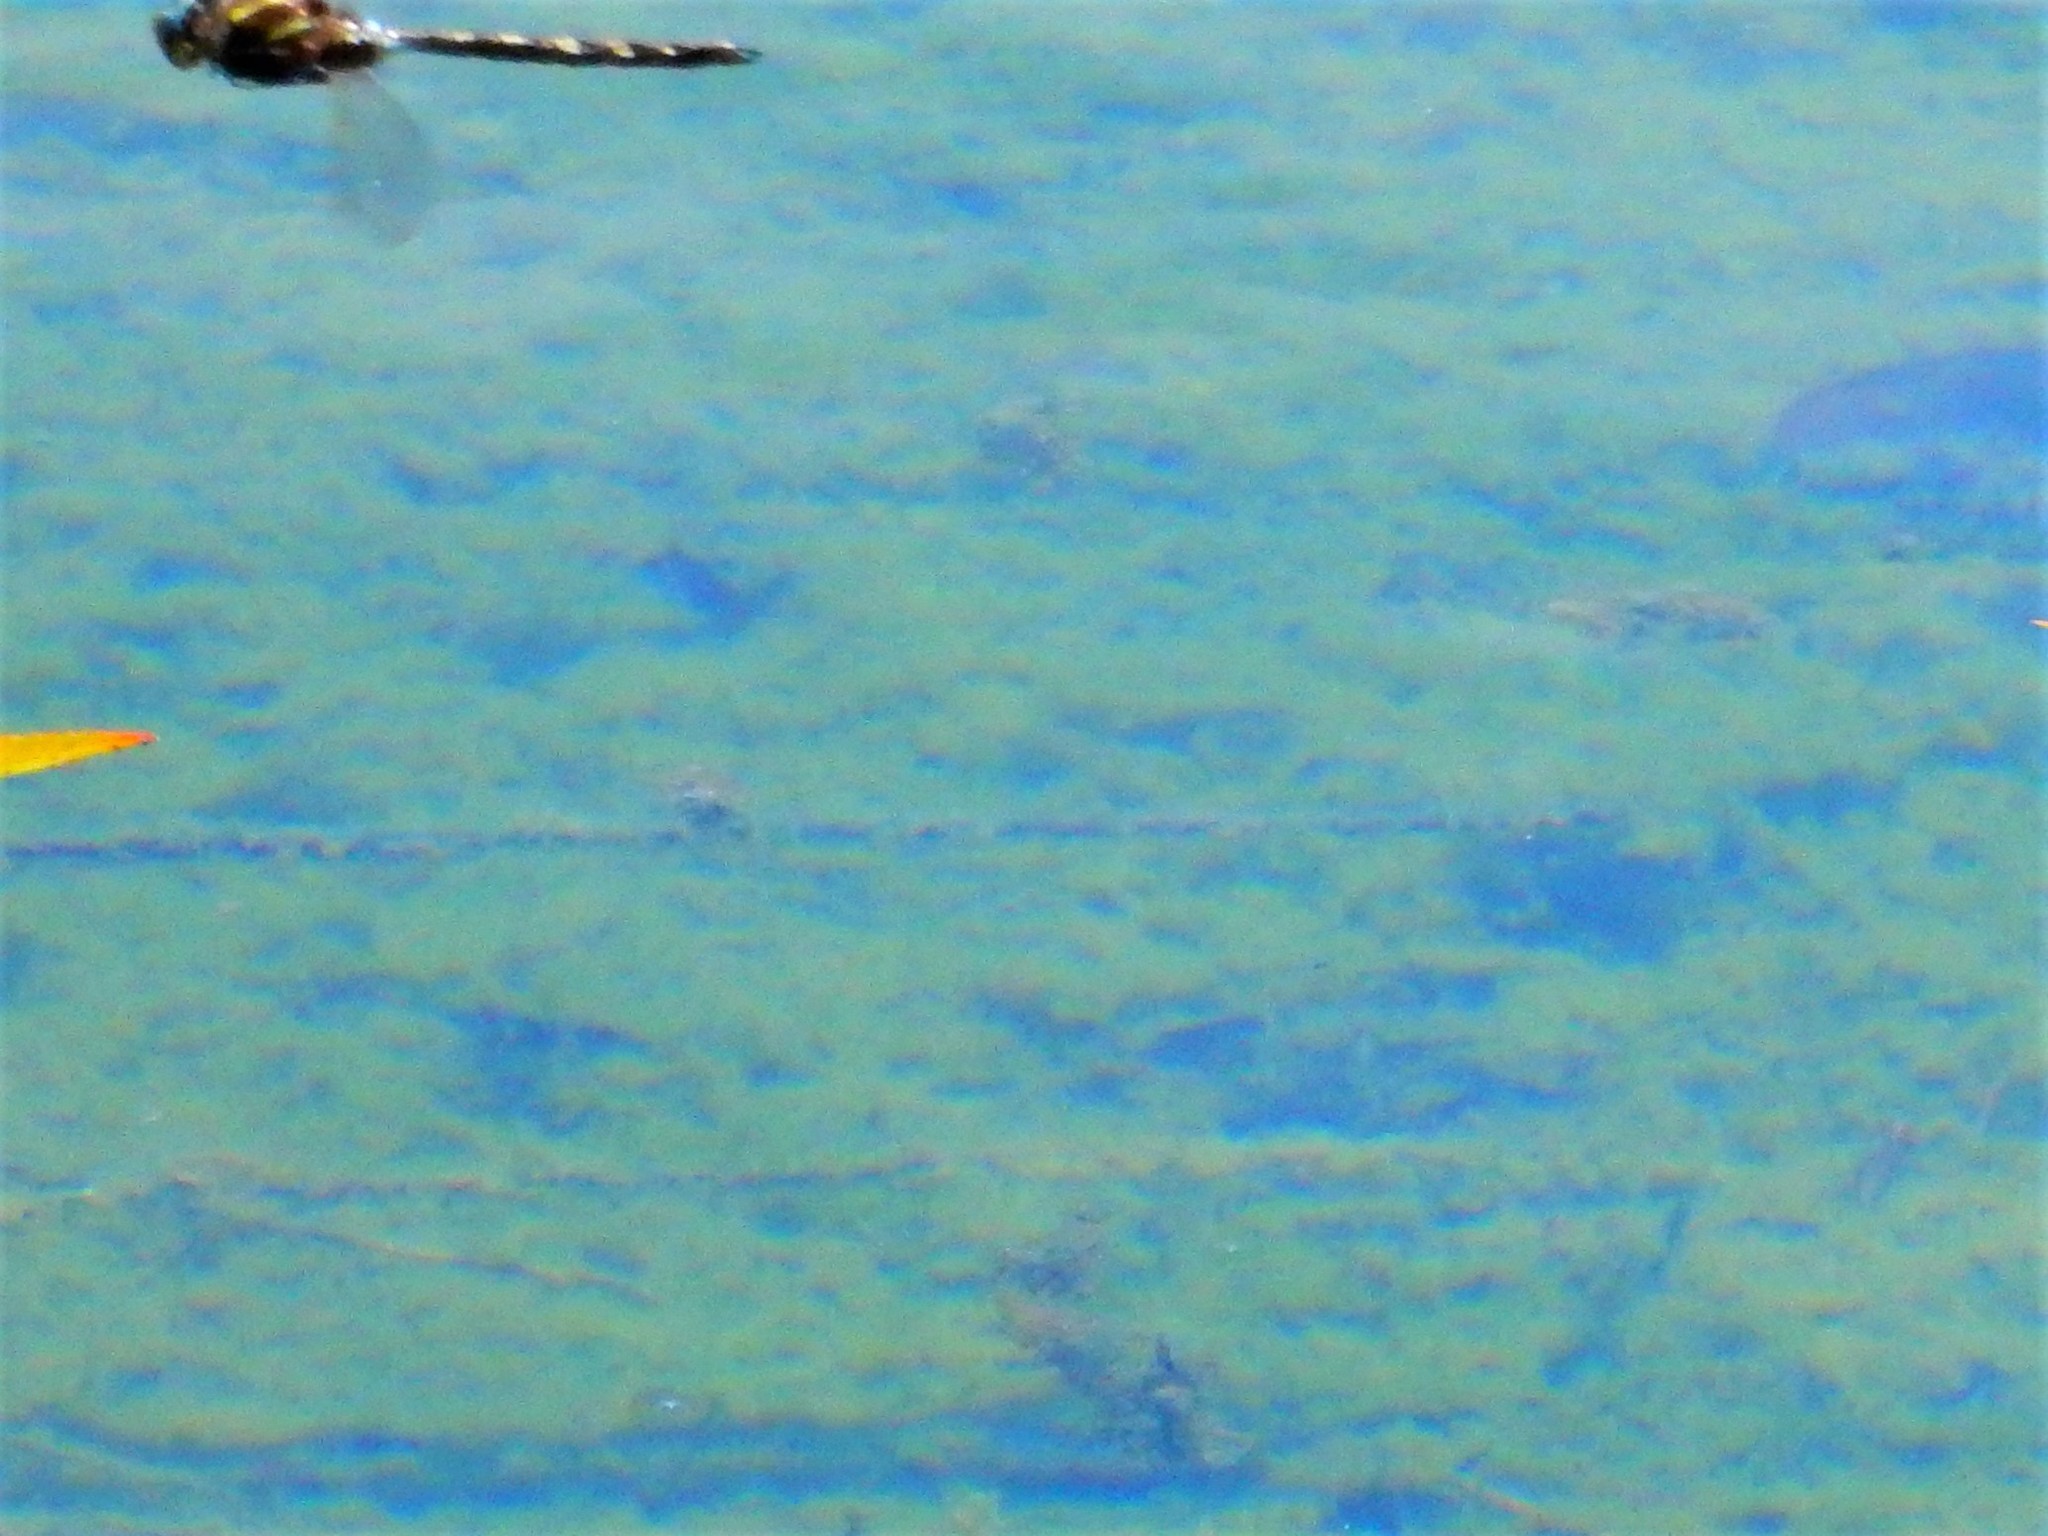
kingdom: Animalia
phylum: Arthropoda
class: Insecta
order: Odonata
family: Corduliidae
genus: Procordulia
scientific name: Procordulia grayi
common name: Yellow spotted dragonfly
